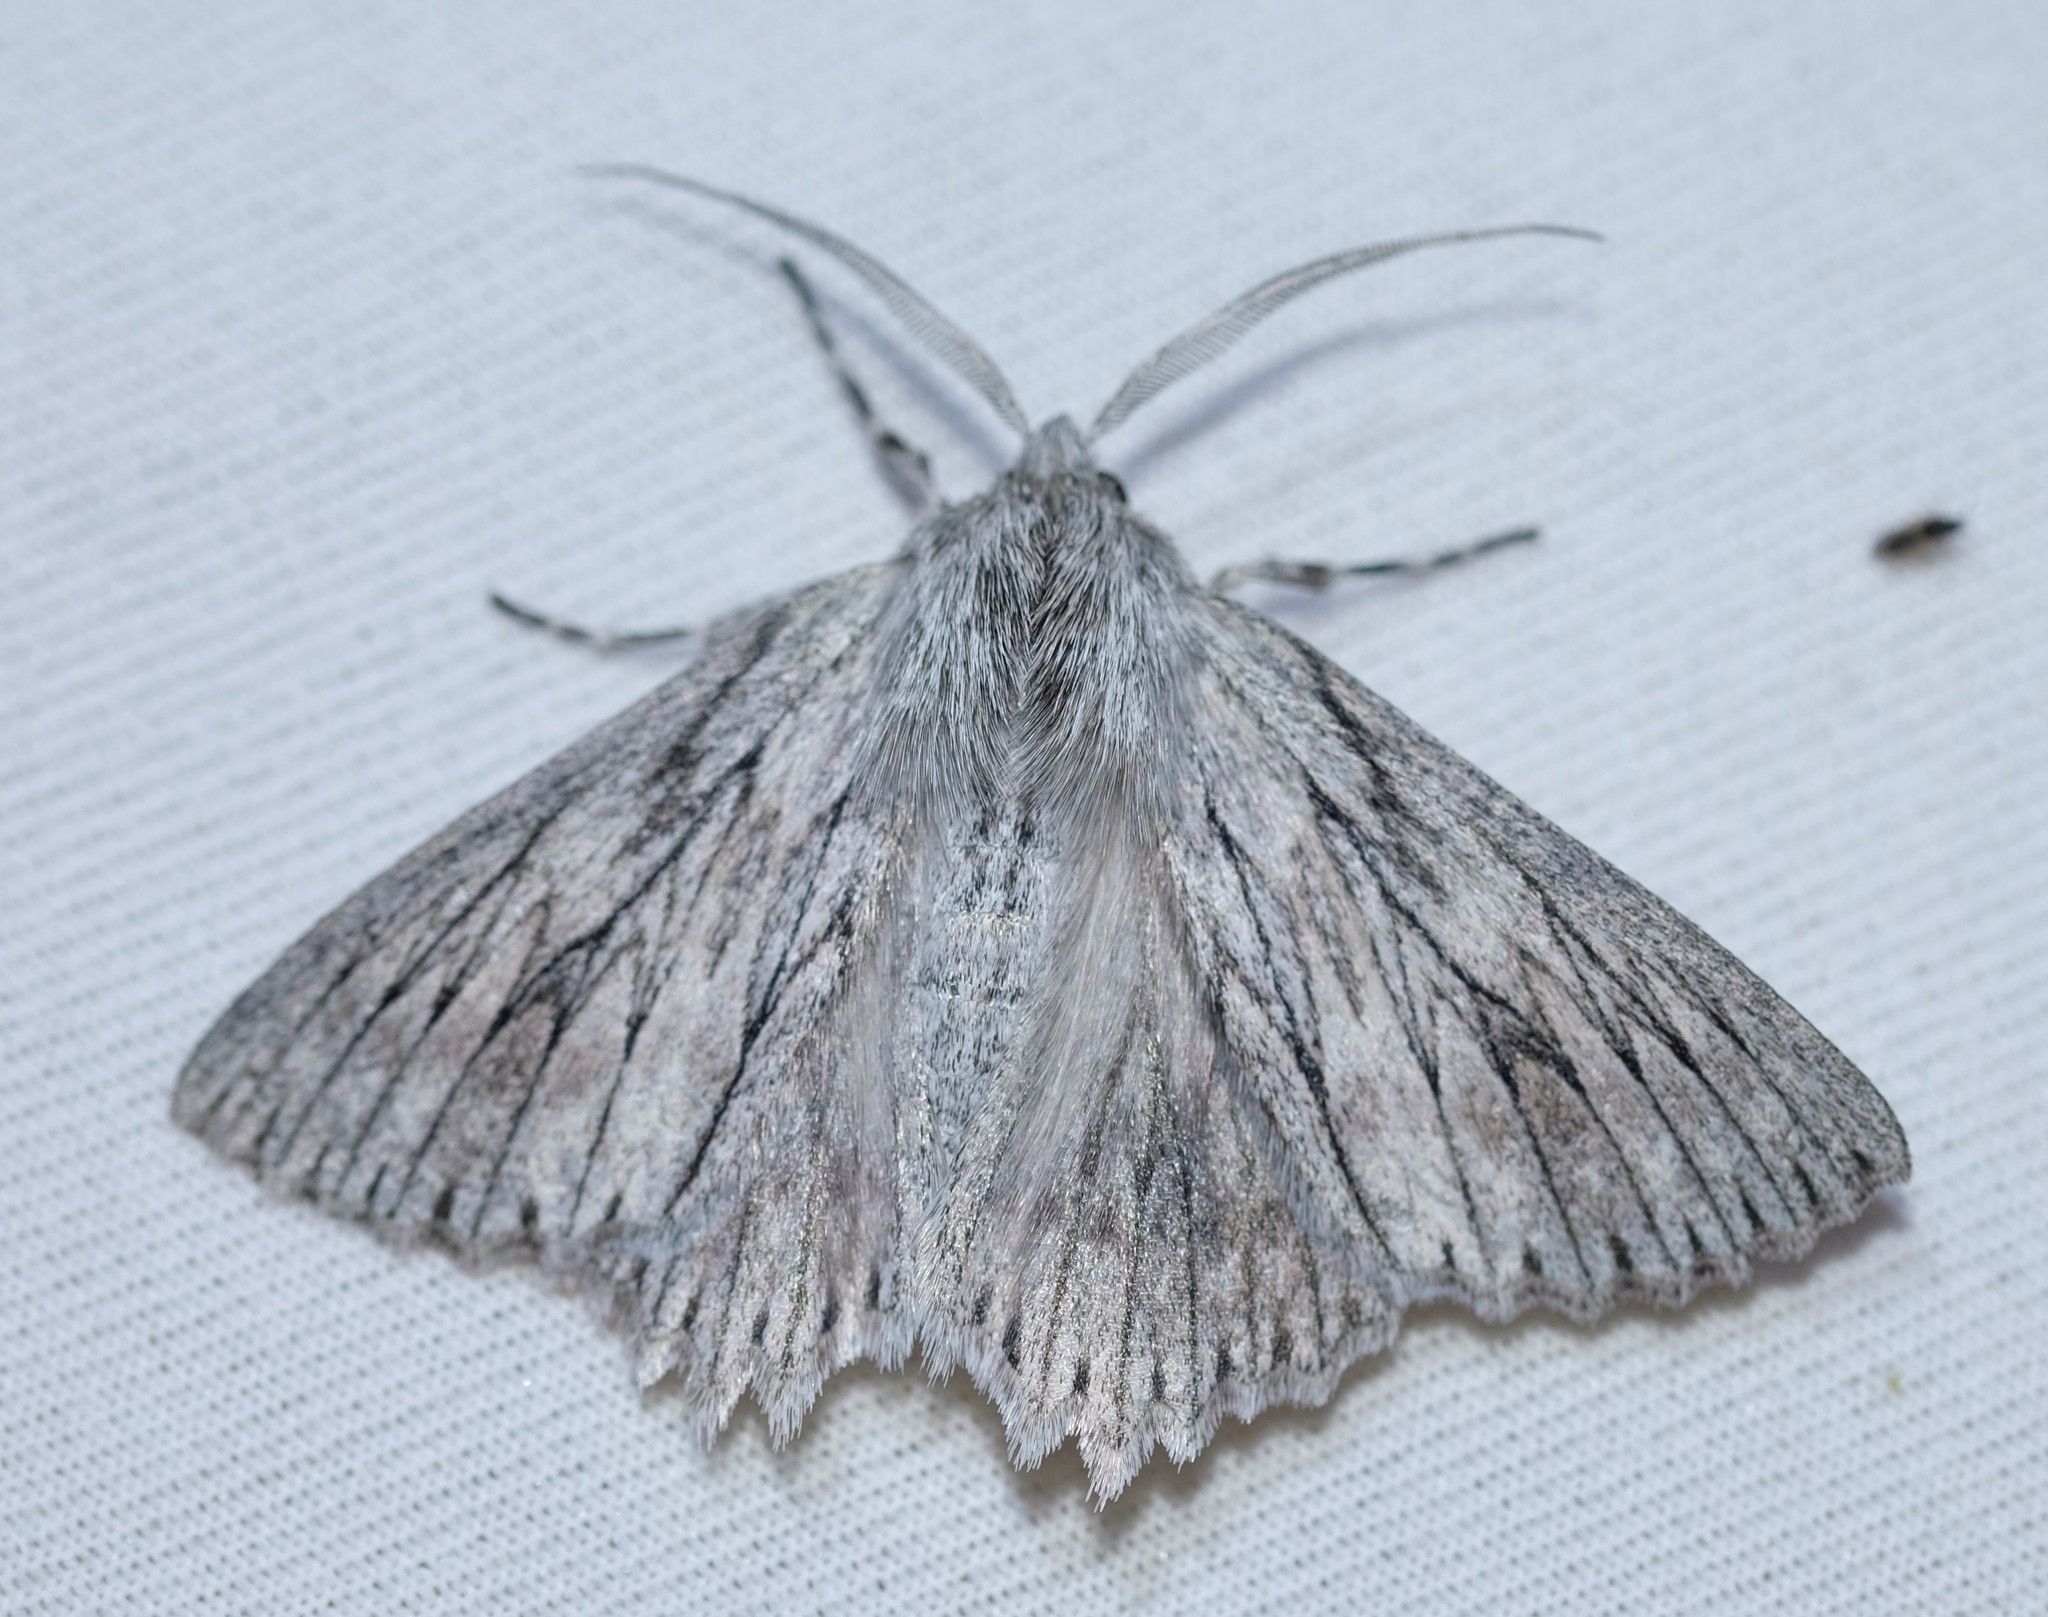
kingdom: Animalia
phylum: Arthropoda
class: Insecta
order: Lepidoptera
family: Geometridae
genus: Cyneoterpna
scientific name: Cyneoterpna wilsoni
